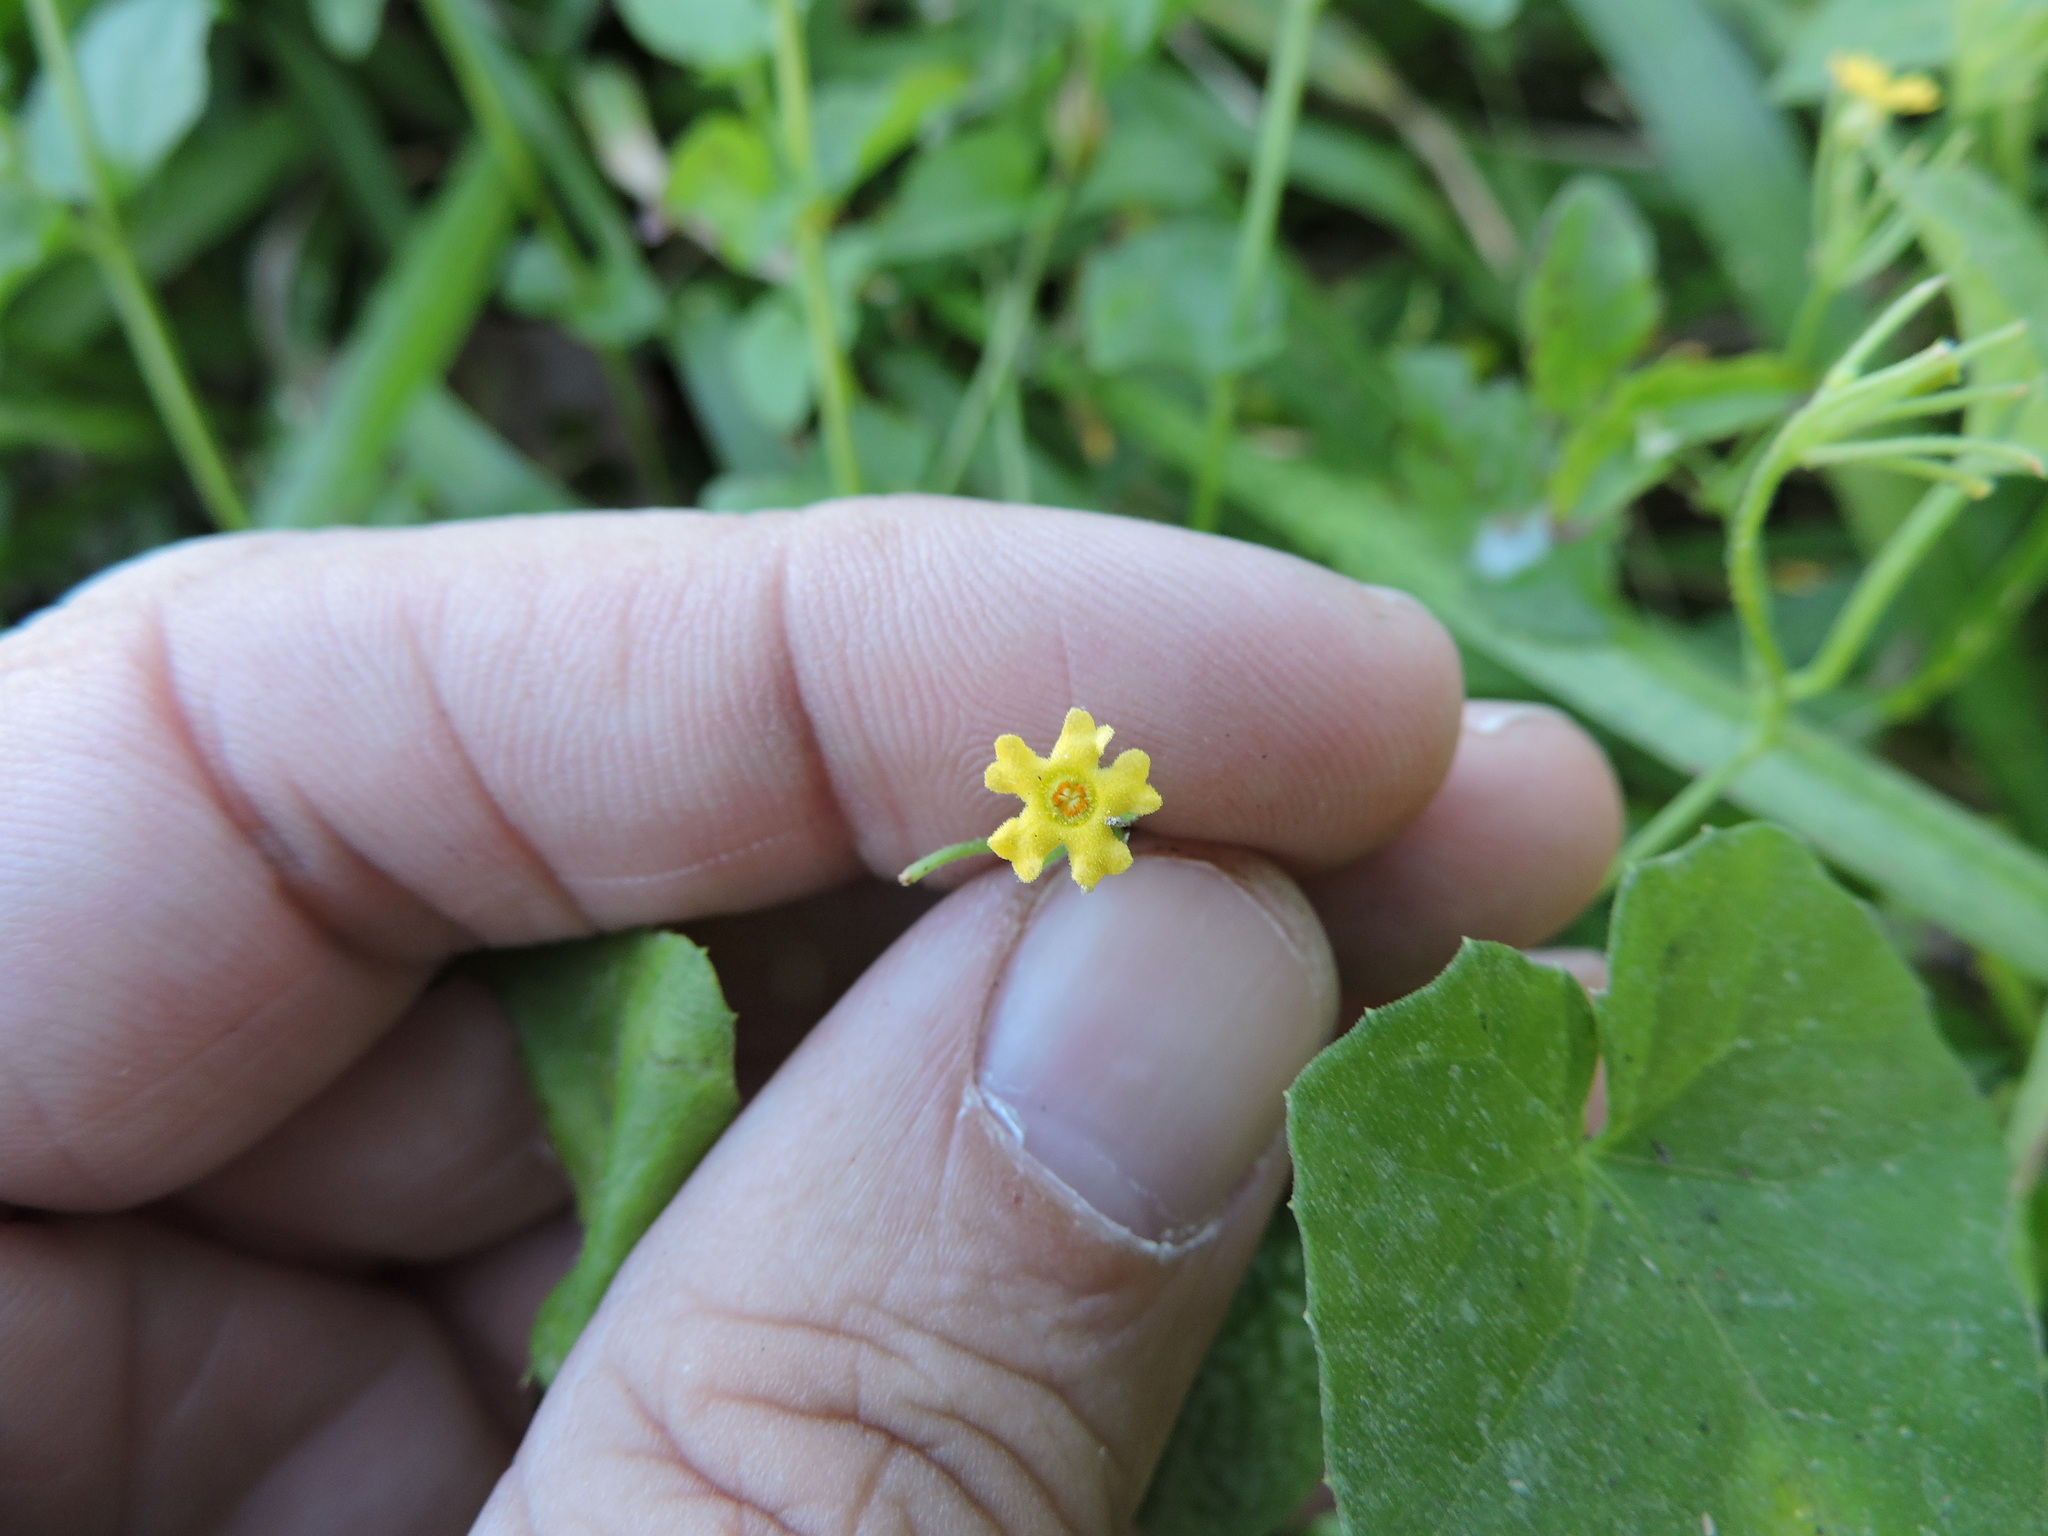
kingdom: Plantae
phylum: Tracheophyta
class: Magnoliopsida
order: Cucurbitales
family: Cucurbitaceae
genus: Melothria
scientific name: Melothria pendula
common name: Creeping-cucumber
